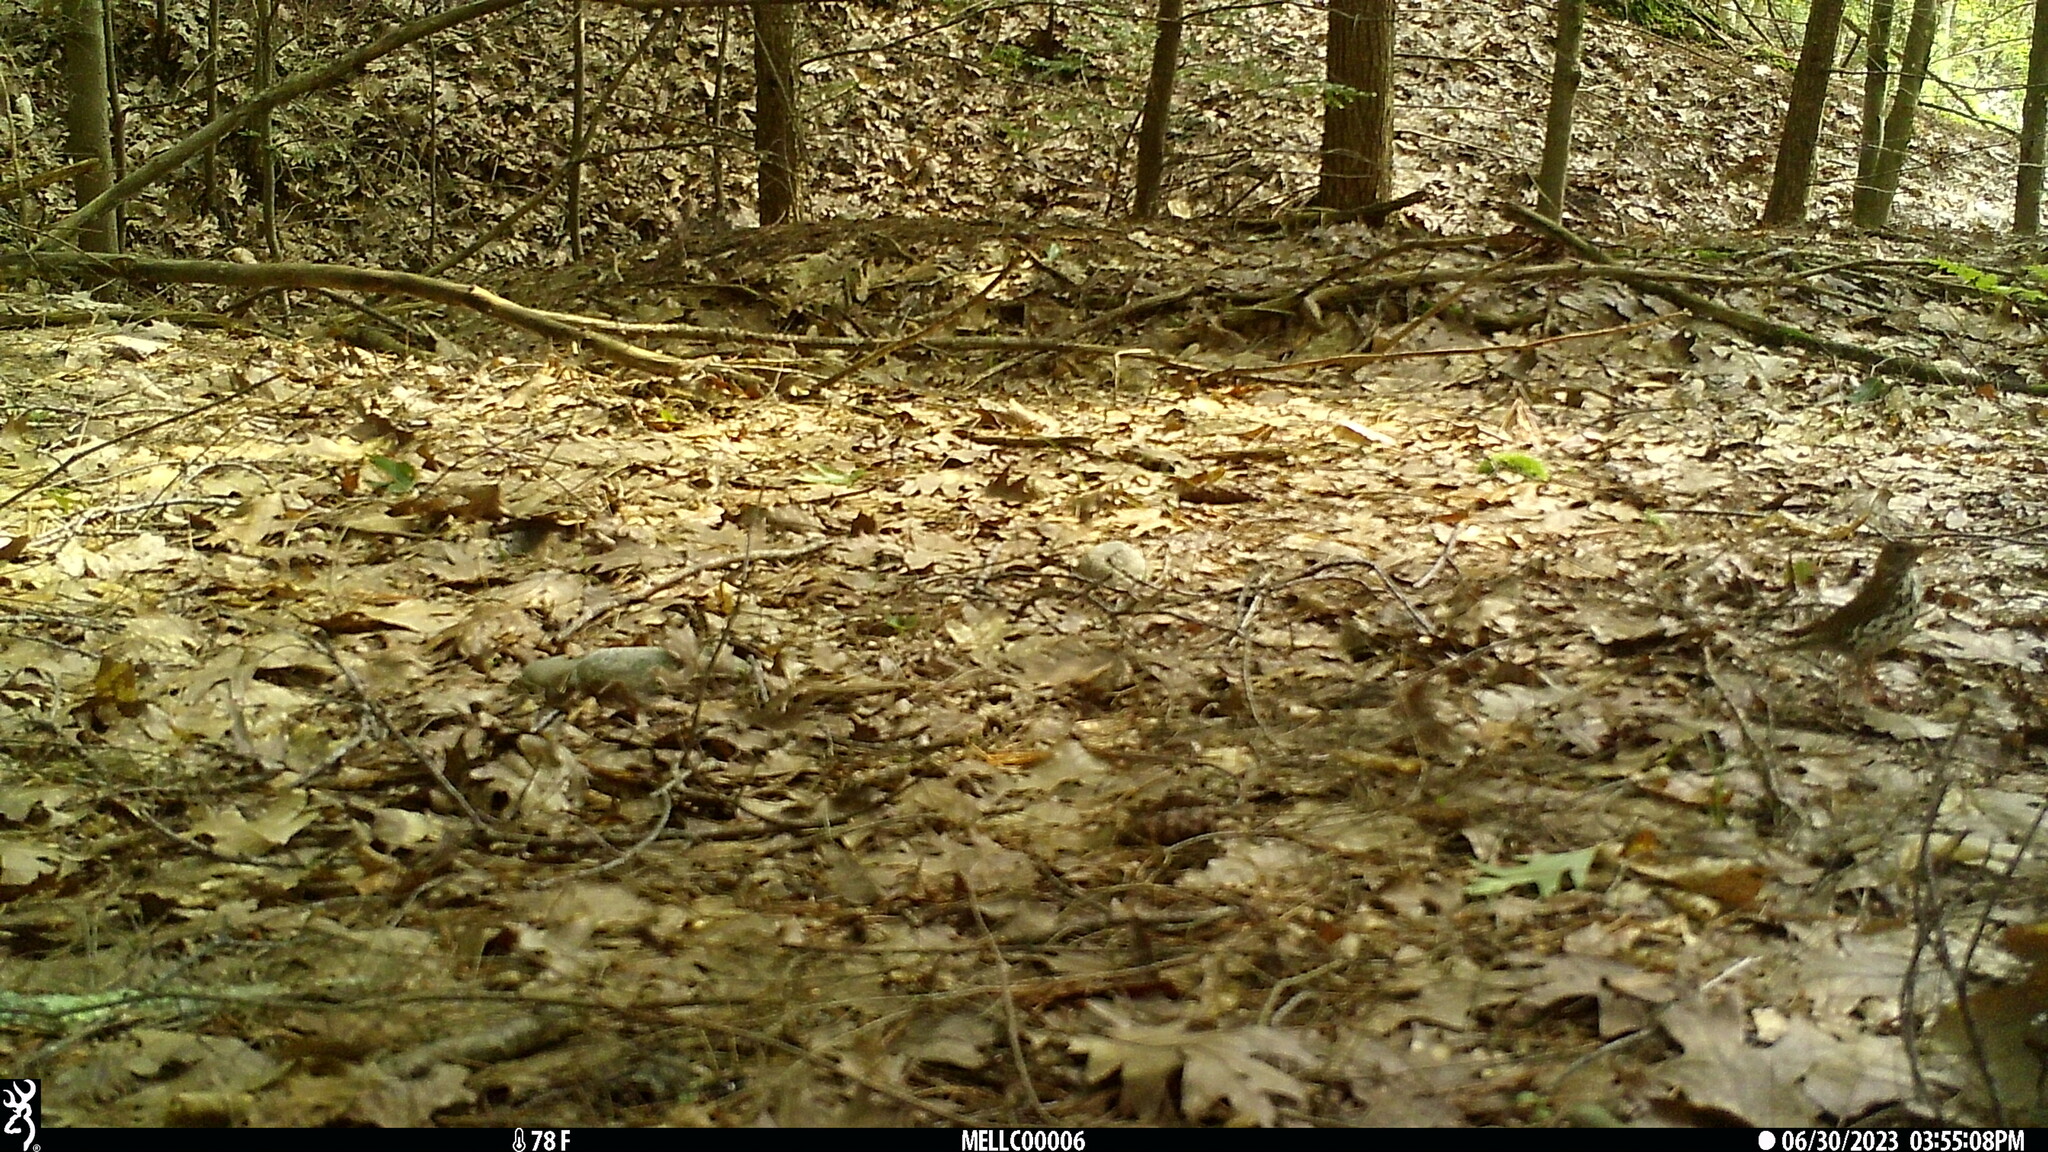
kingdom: Animalia
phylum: Chordata
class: Aves
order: Passeriformes
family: Turdidae
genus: Hylocichla
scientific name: Hylocichla mustelina
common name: Wood thrush
